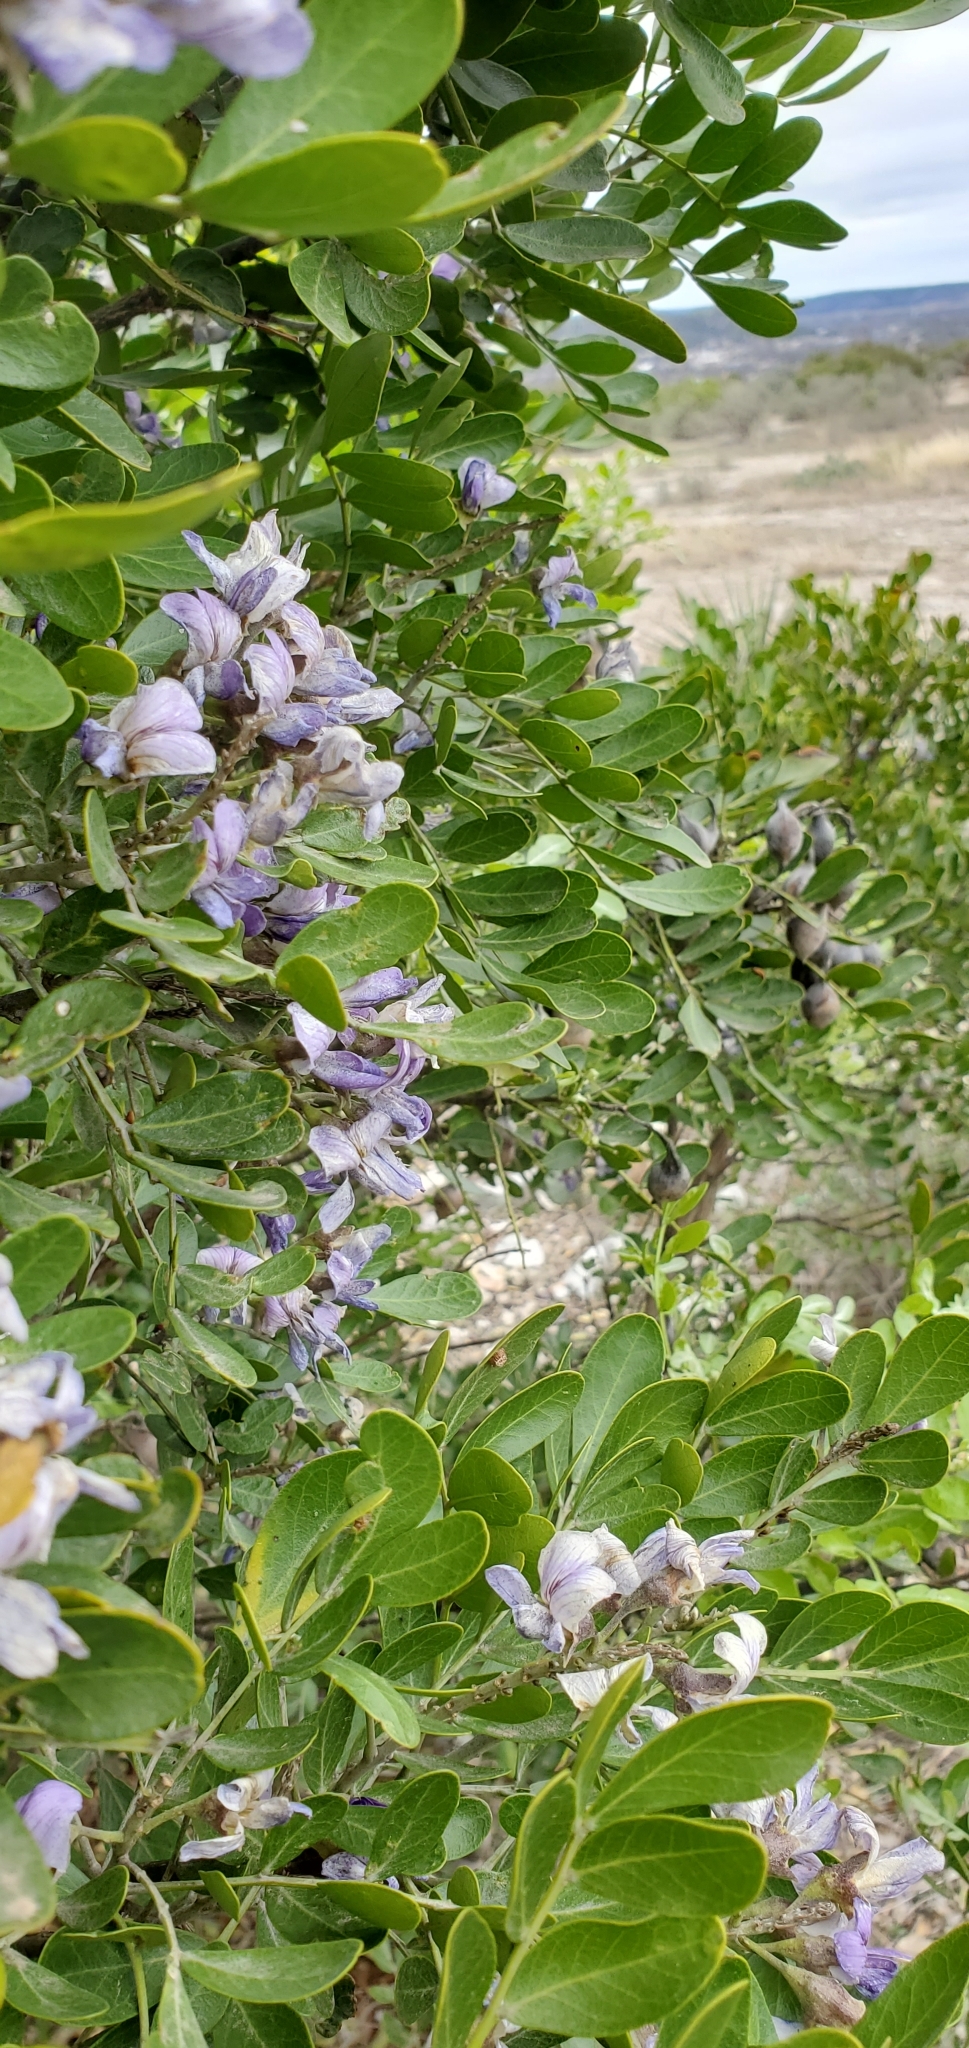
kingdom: Plantae
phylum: Tracheophyta
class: Magnoliopsida
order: Fabales
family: Fabaceae
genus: Dermatophyllum
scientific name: Dermatophyllum secundiflorum
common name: Texas-mountain-laurel
